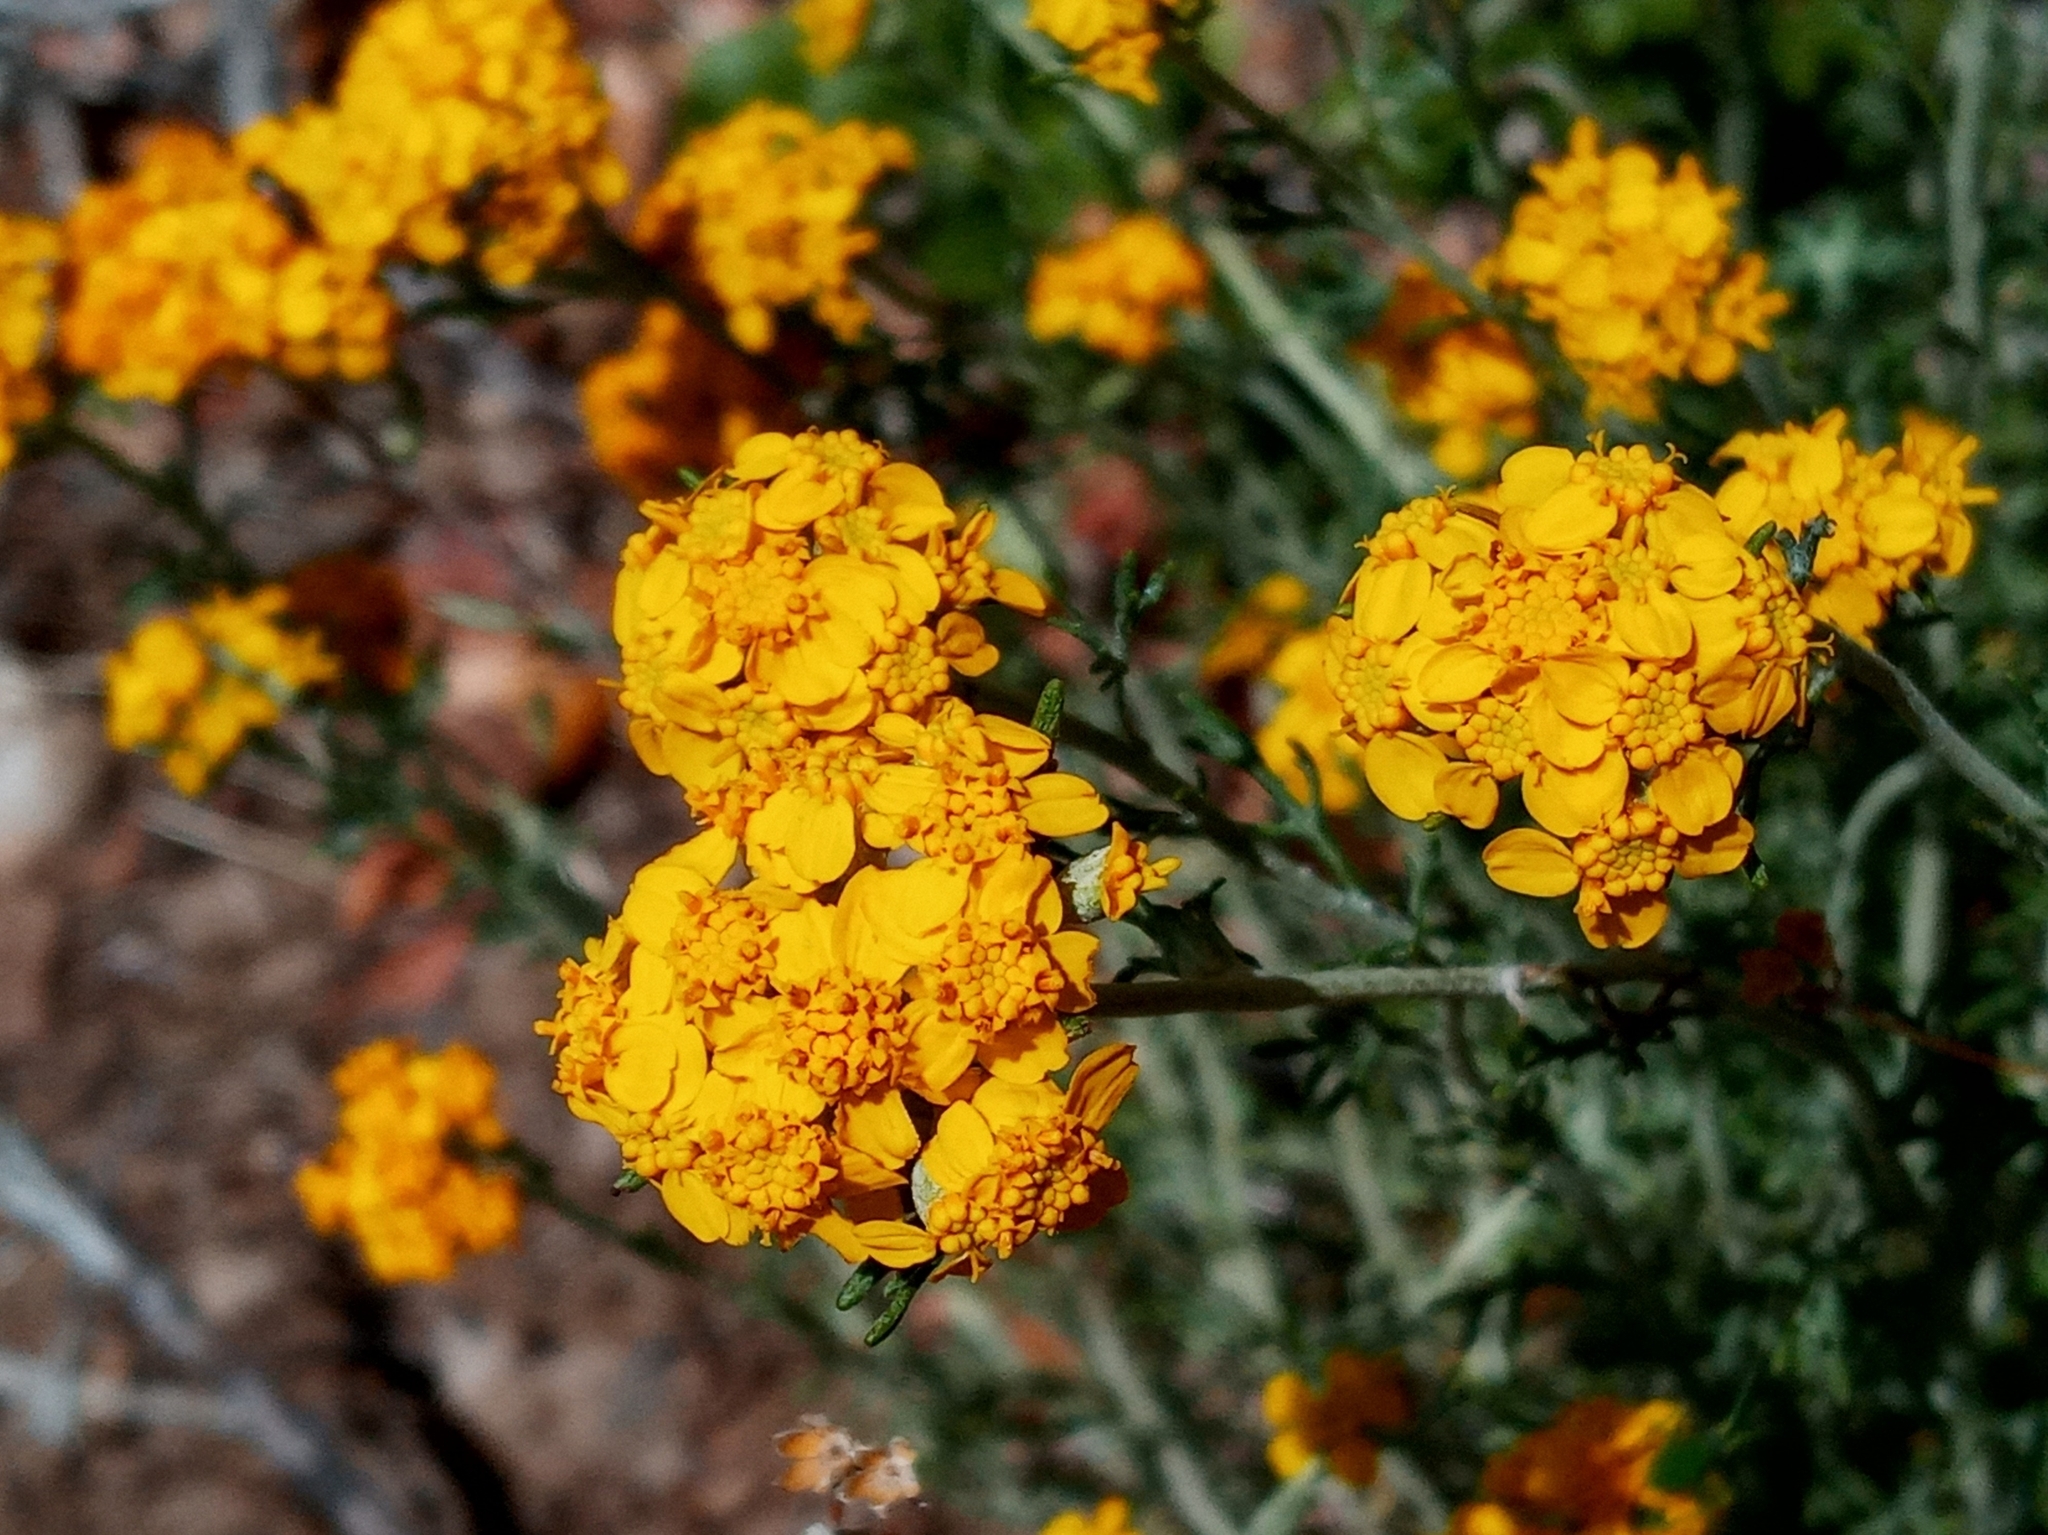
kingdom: Plantae
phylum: Tracheophyta
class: Magnoliopsida
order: Asterales
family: Asteraceae
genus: Eriophyllum
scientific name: Eriophyllum confertiflorum
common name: Golden-yarrow
